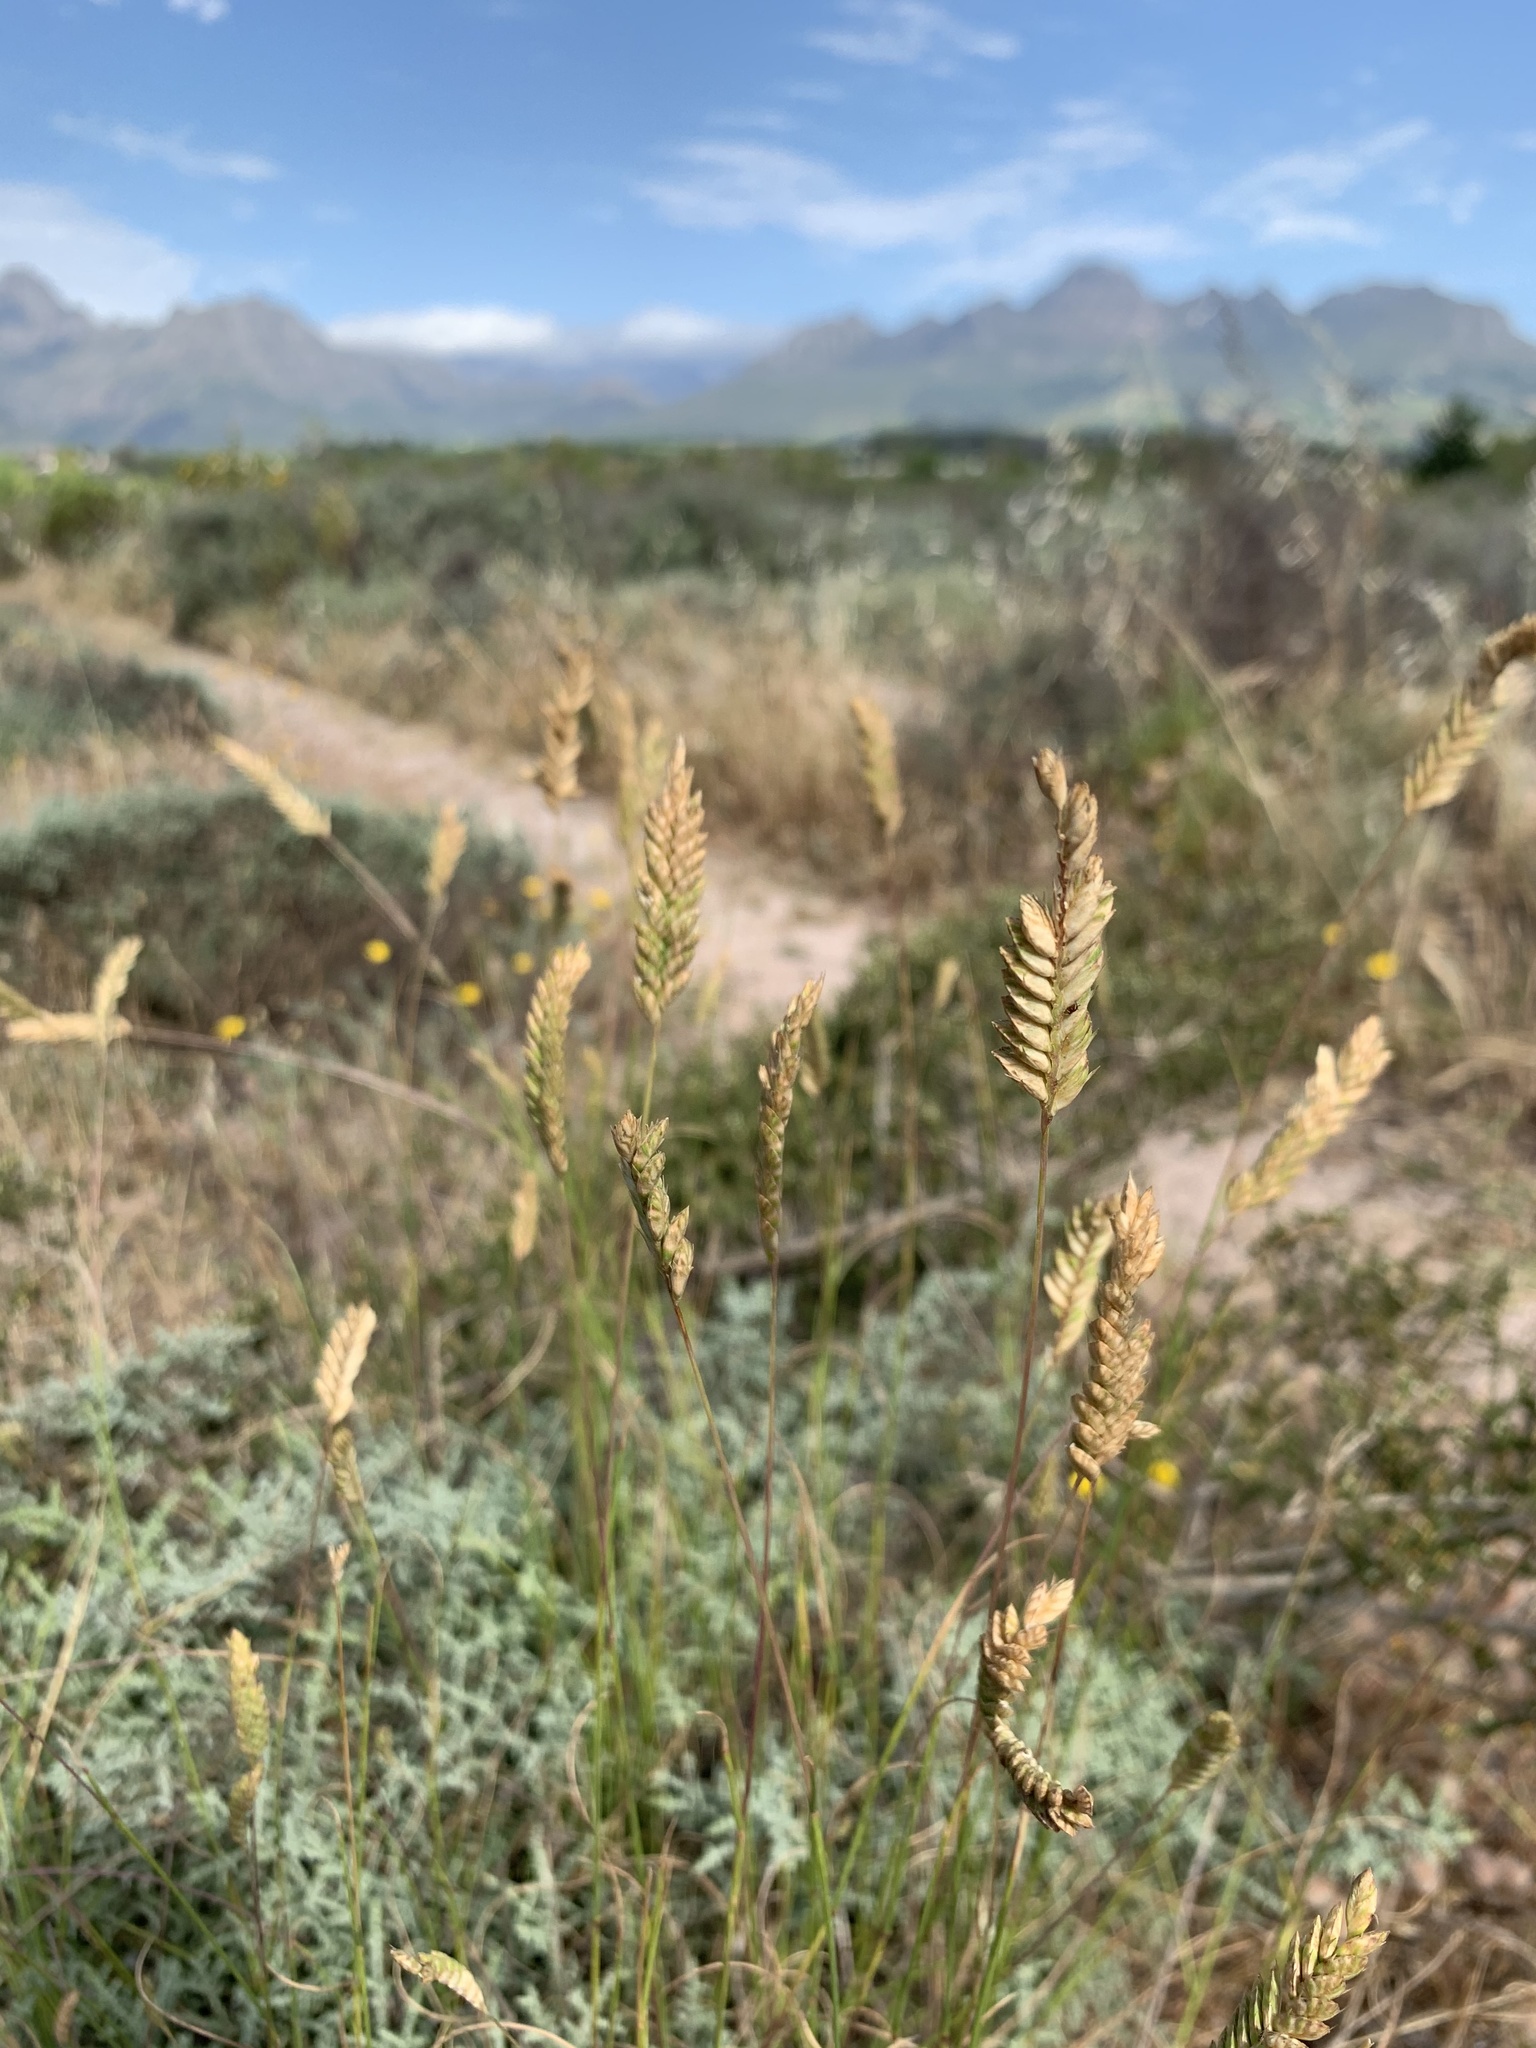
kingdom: Plantae
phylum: Tracheophyta
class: Liliopsida
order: Poales
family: Poaceae
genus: Tribolium
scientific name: Tribolium uniolae
